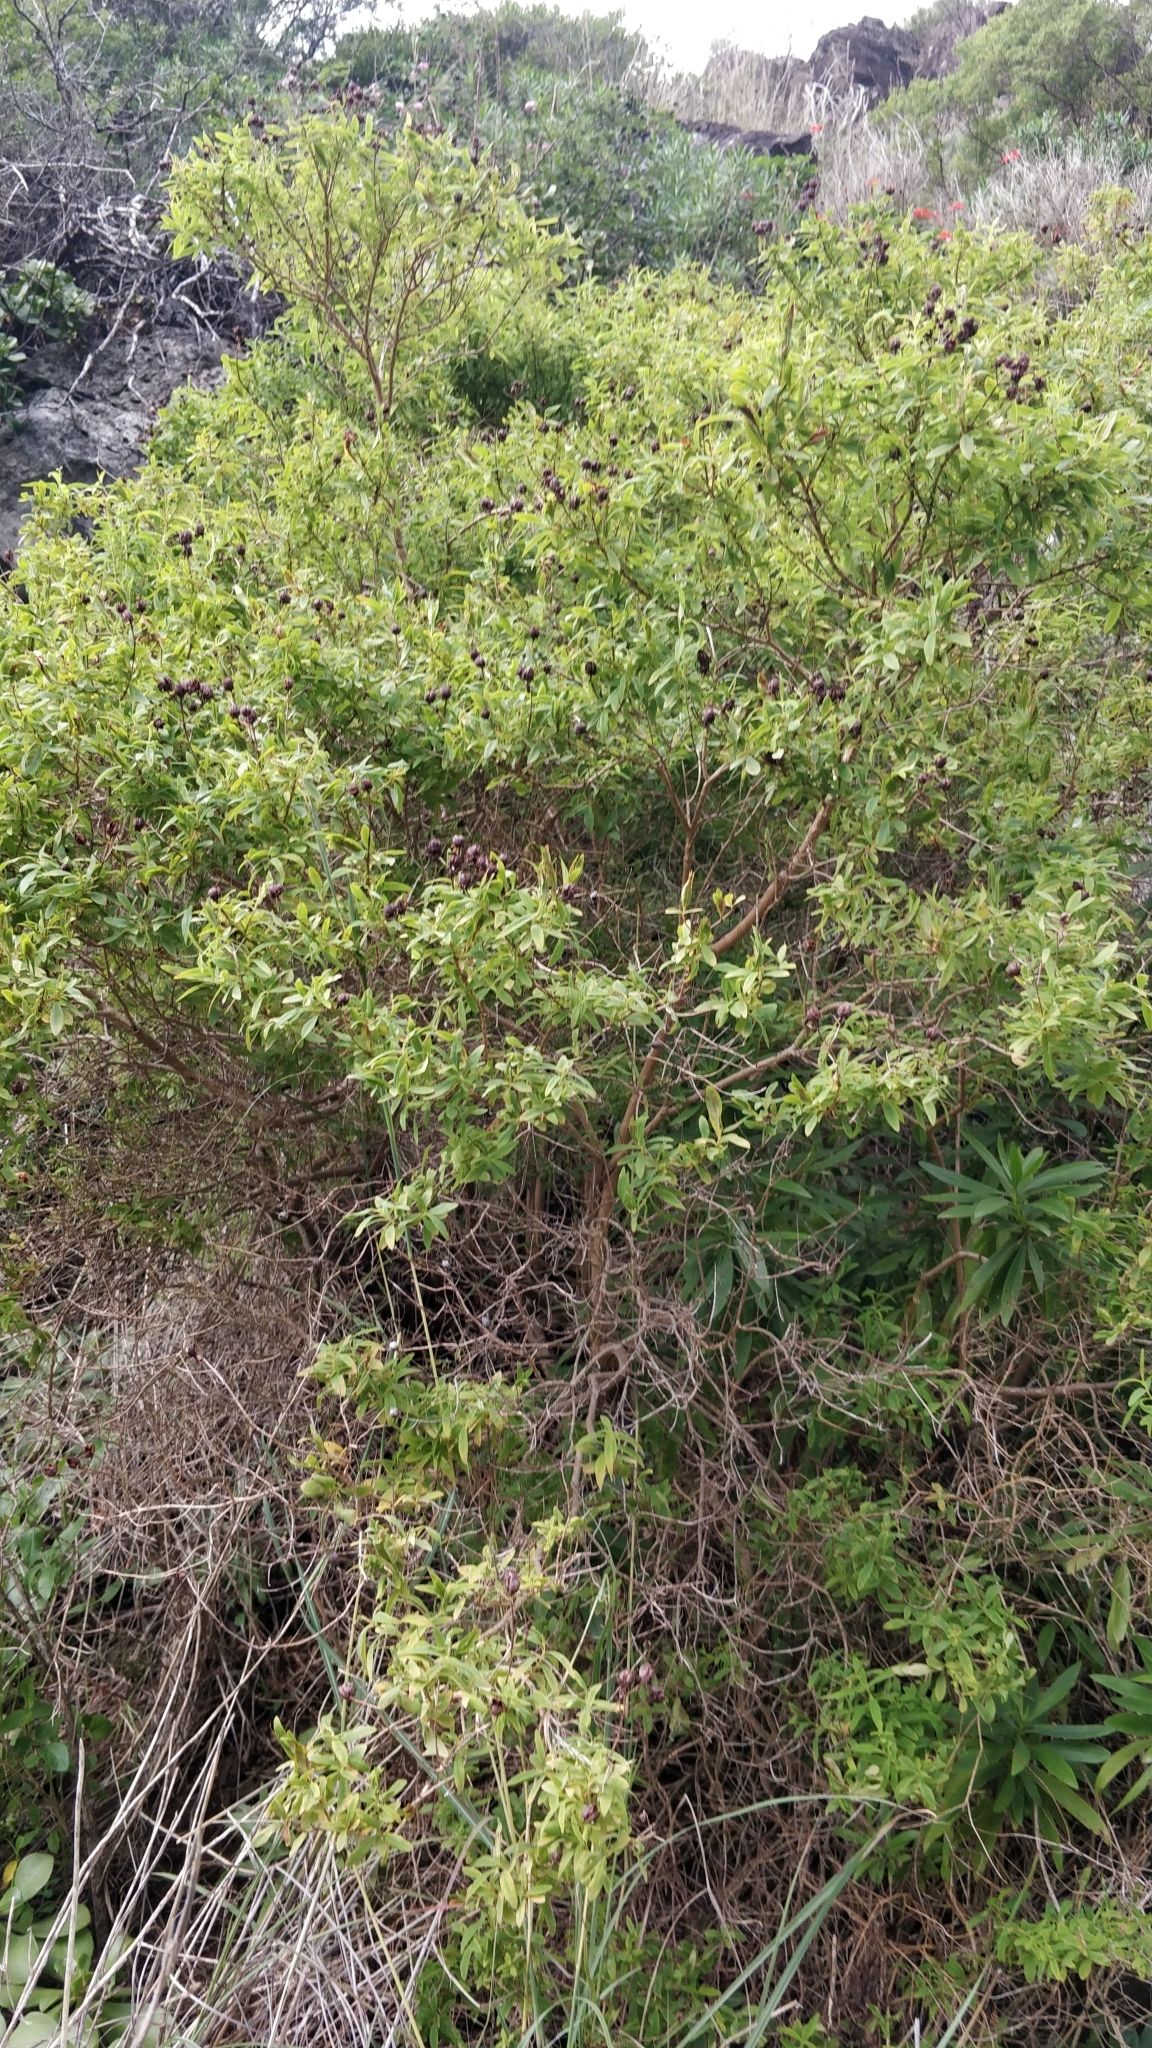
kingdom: Plantae
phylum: Tracheophyta
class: Magnoliopsida
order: Malpighiales
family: Hypericaceae
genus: Hypericum
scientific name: Hypericum canariense
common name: Canary island st. johnswort
